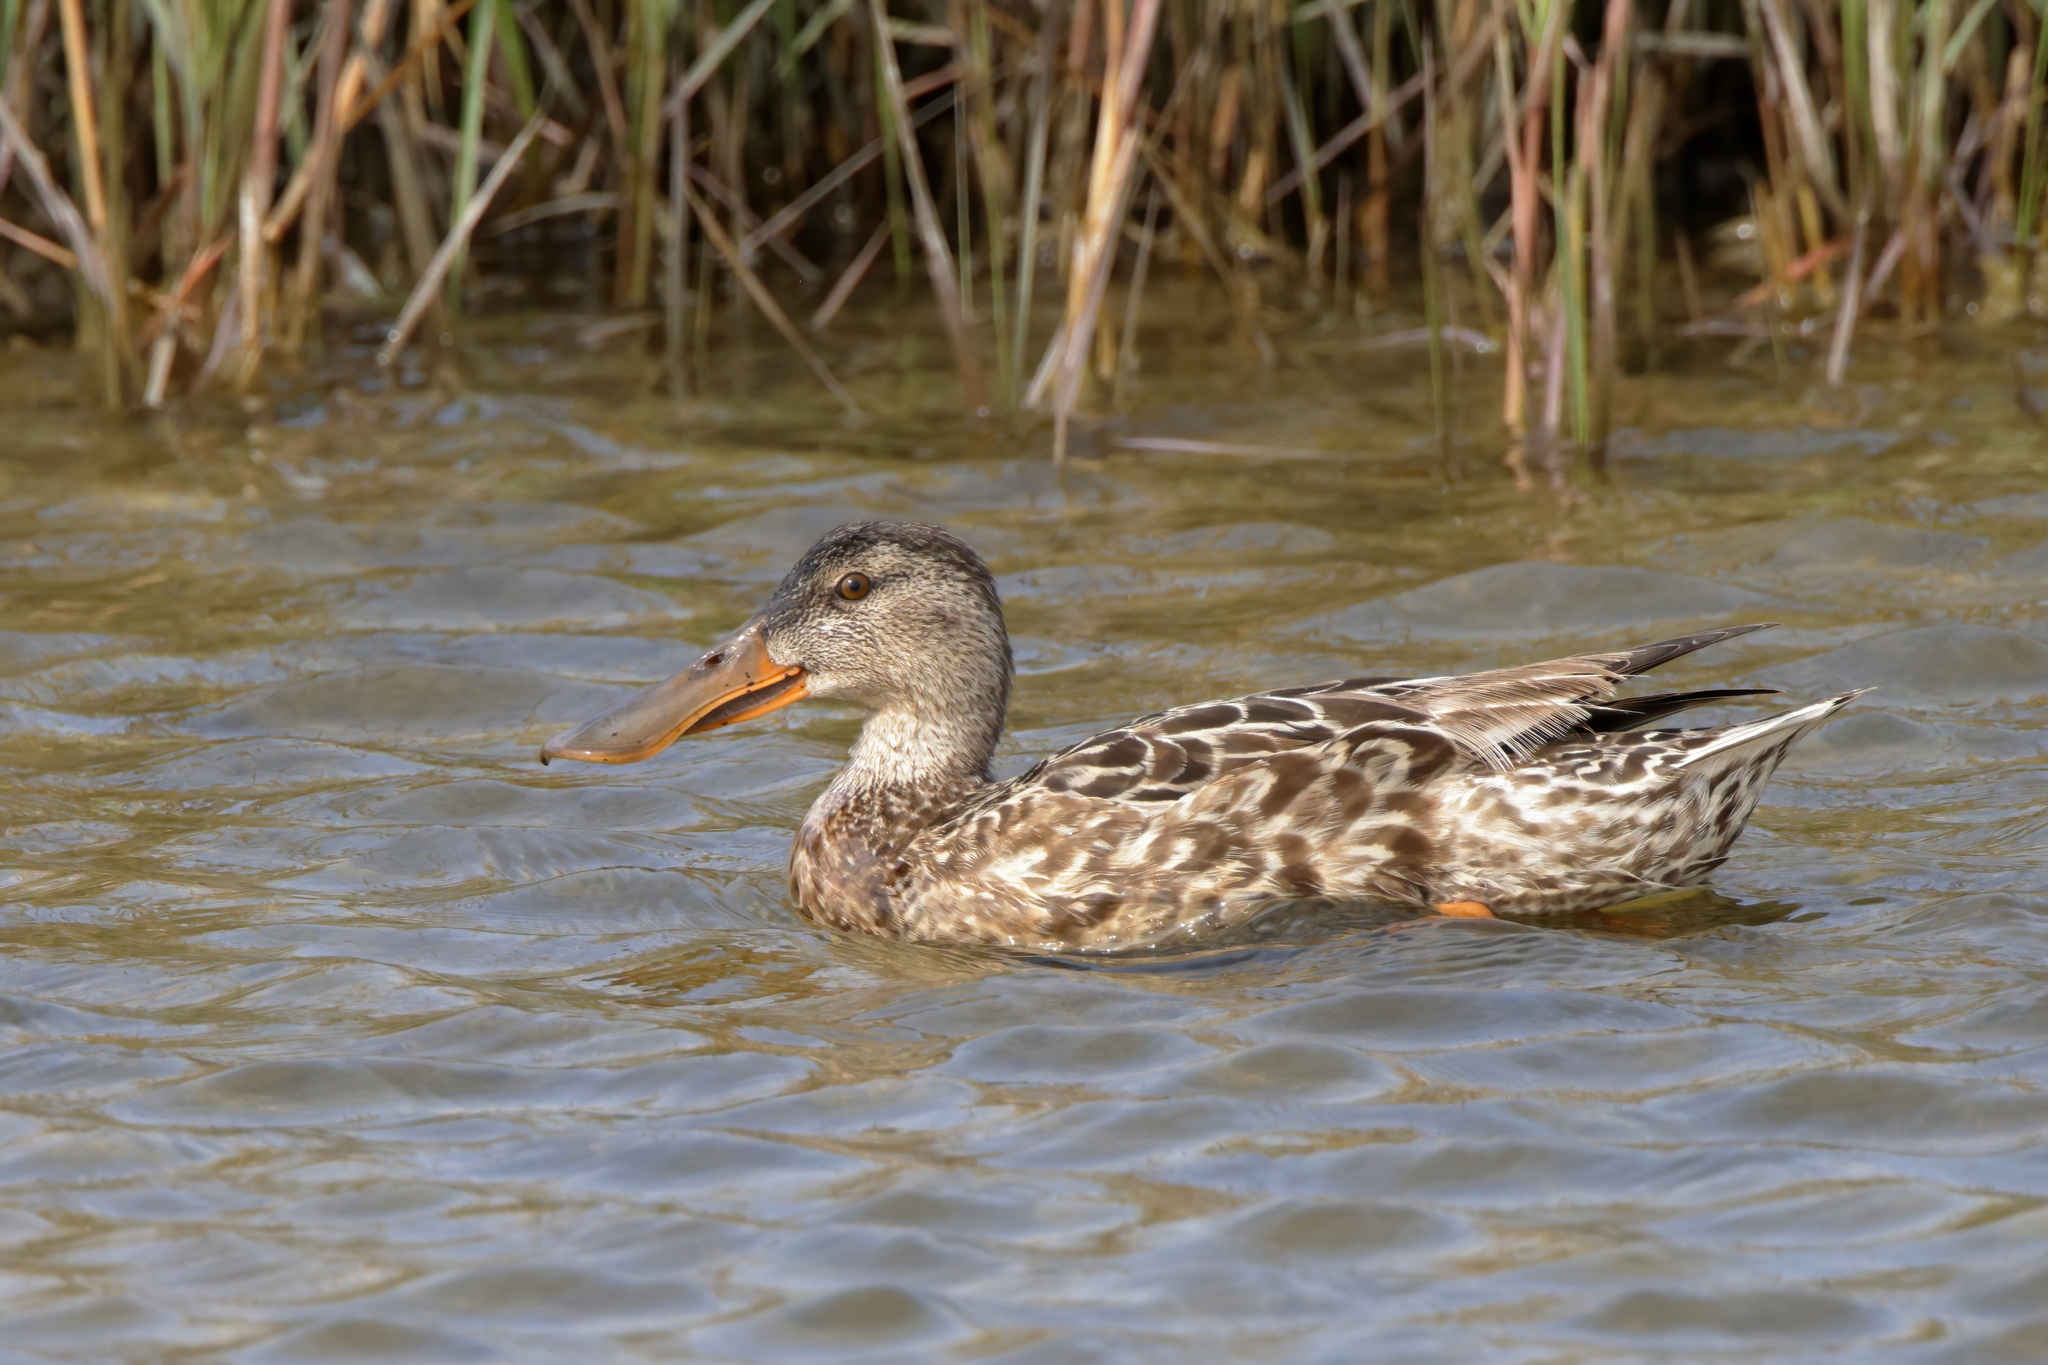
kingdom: Animalia
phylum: Chordata
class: Aves
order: Anseriformes
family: Anatidae
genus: Spatula
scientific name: Spatula clypeata
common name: Northern shoveler
